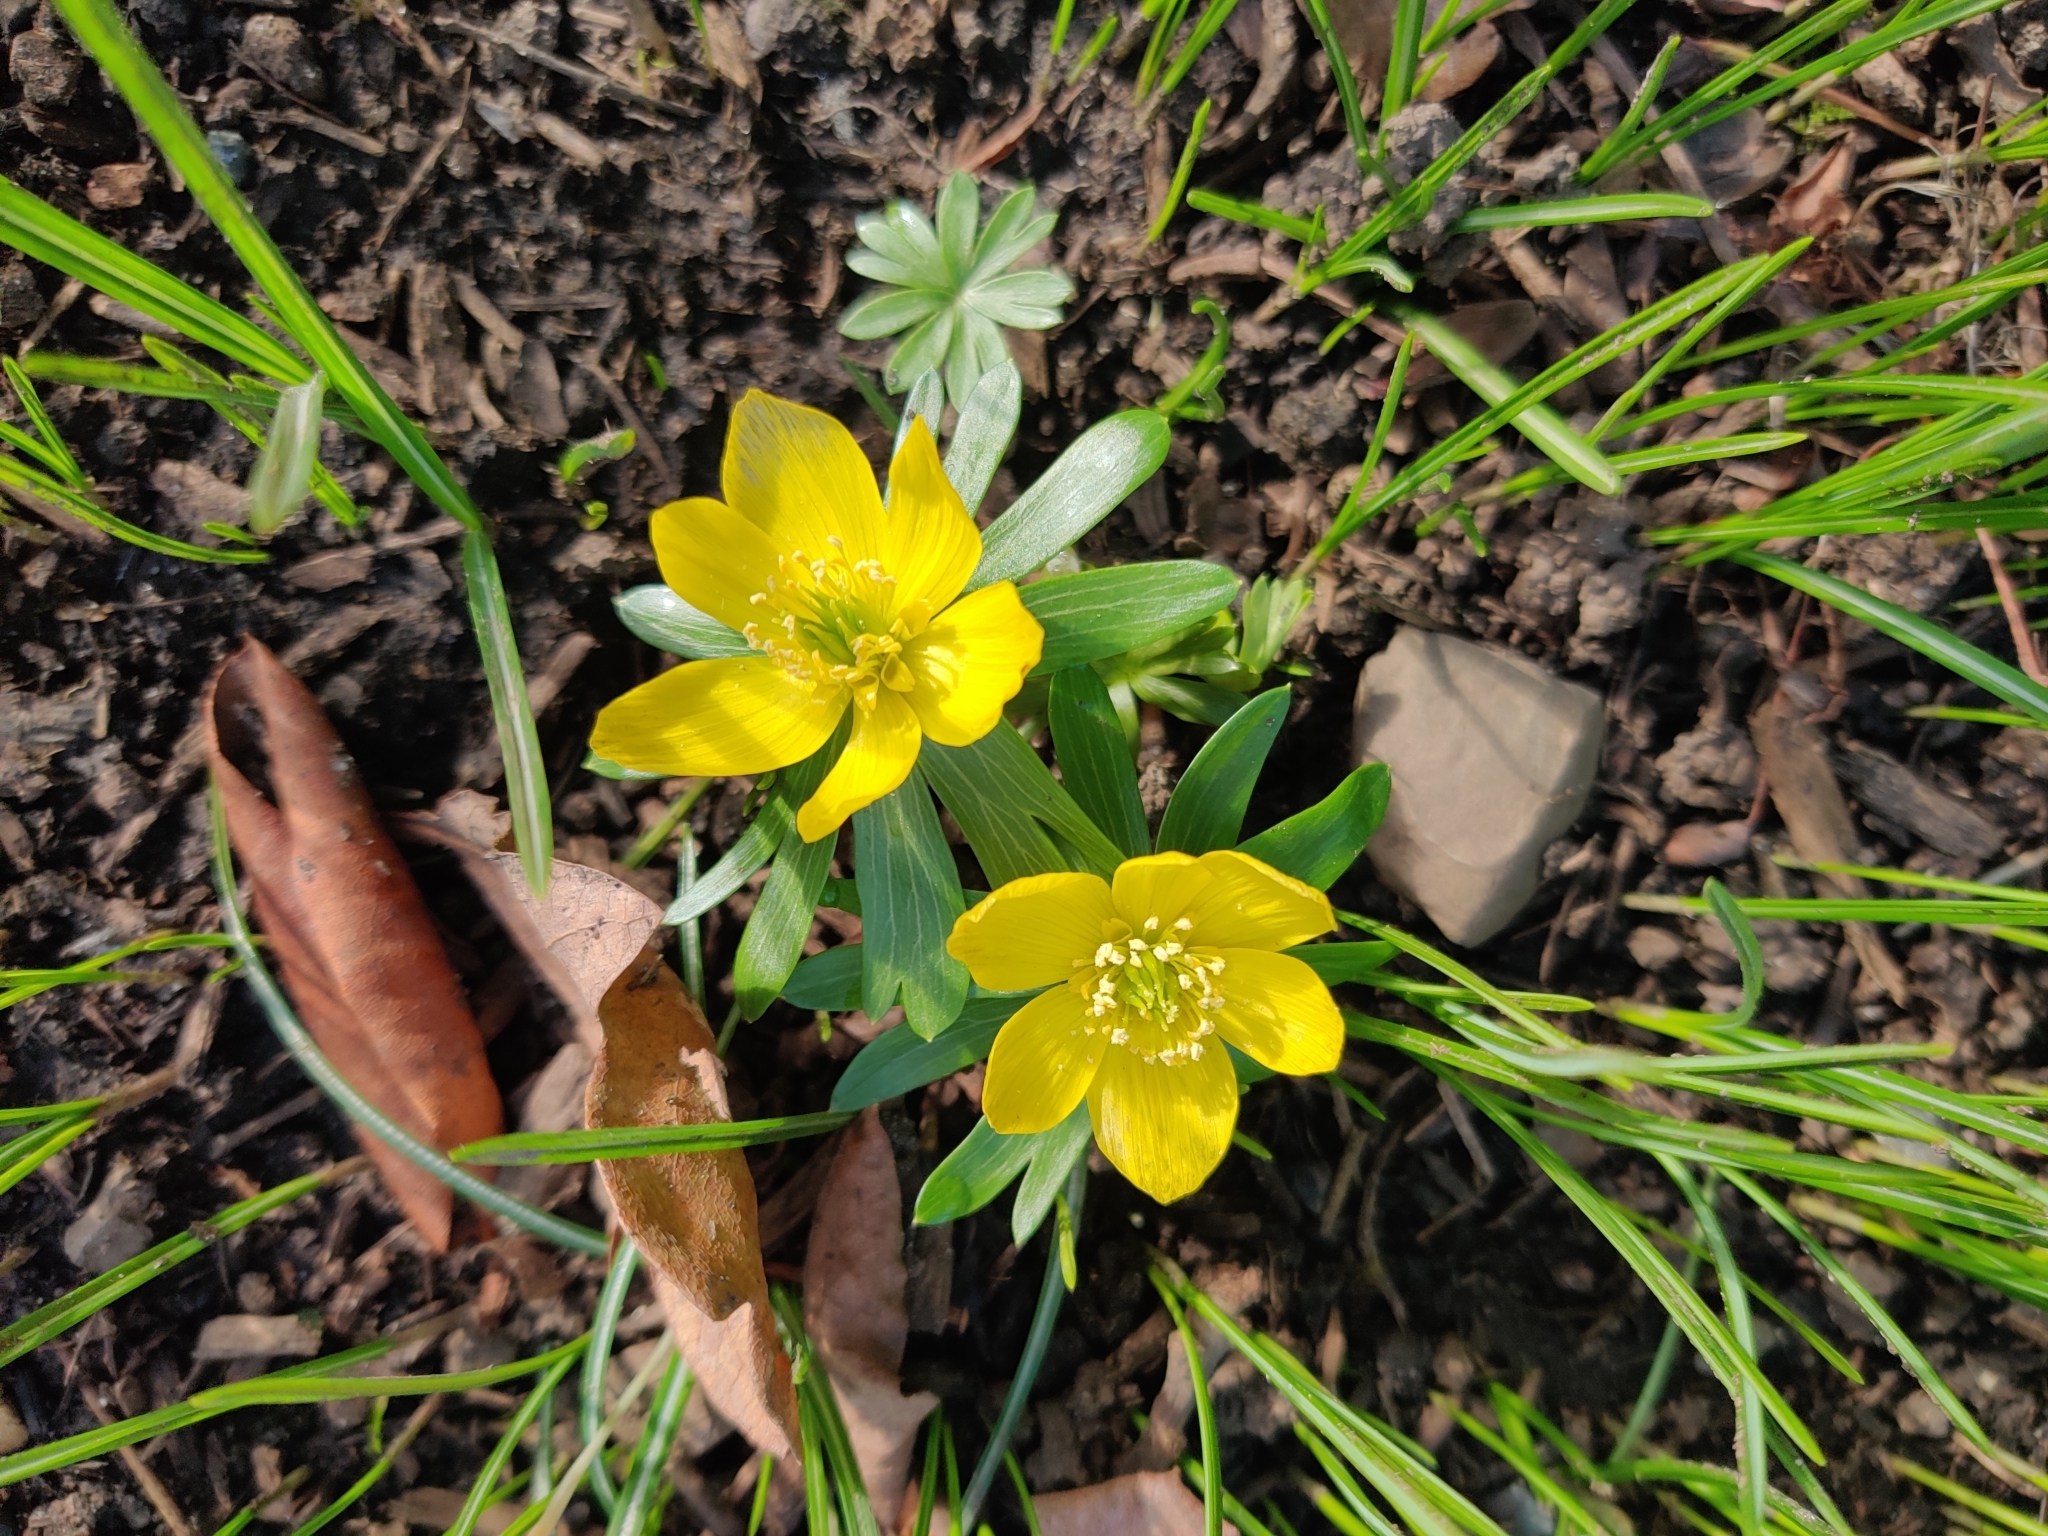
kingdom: Plantae
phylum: Tracheophyta
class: Magnoliopsida
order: Ranunculales
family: Ranunculaceae
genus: Eranthis
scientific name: Eranthis hyemalis
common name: Winter aconite
